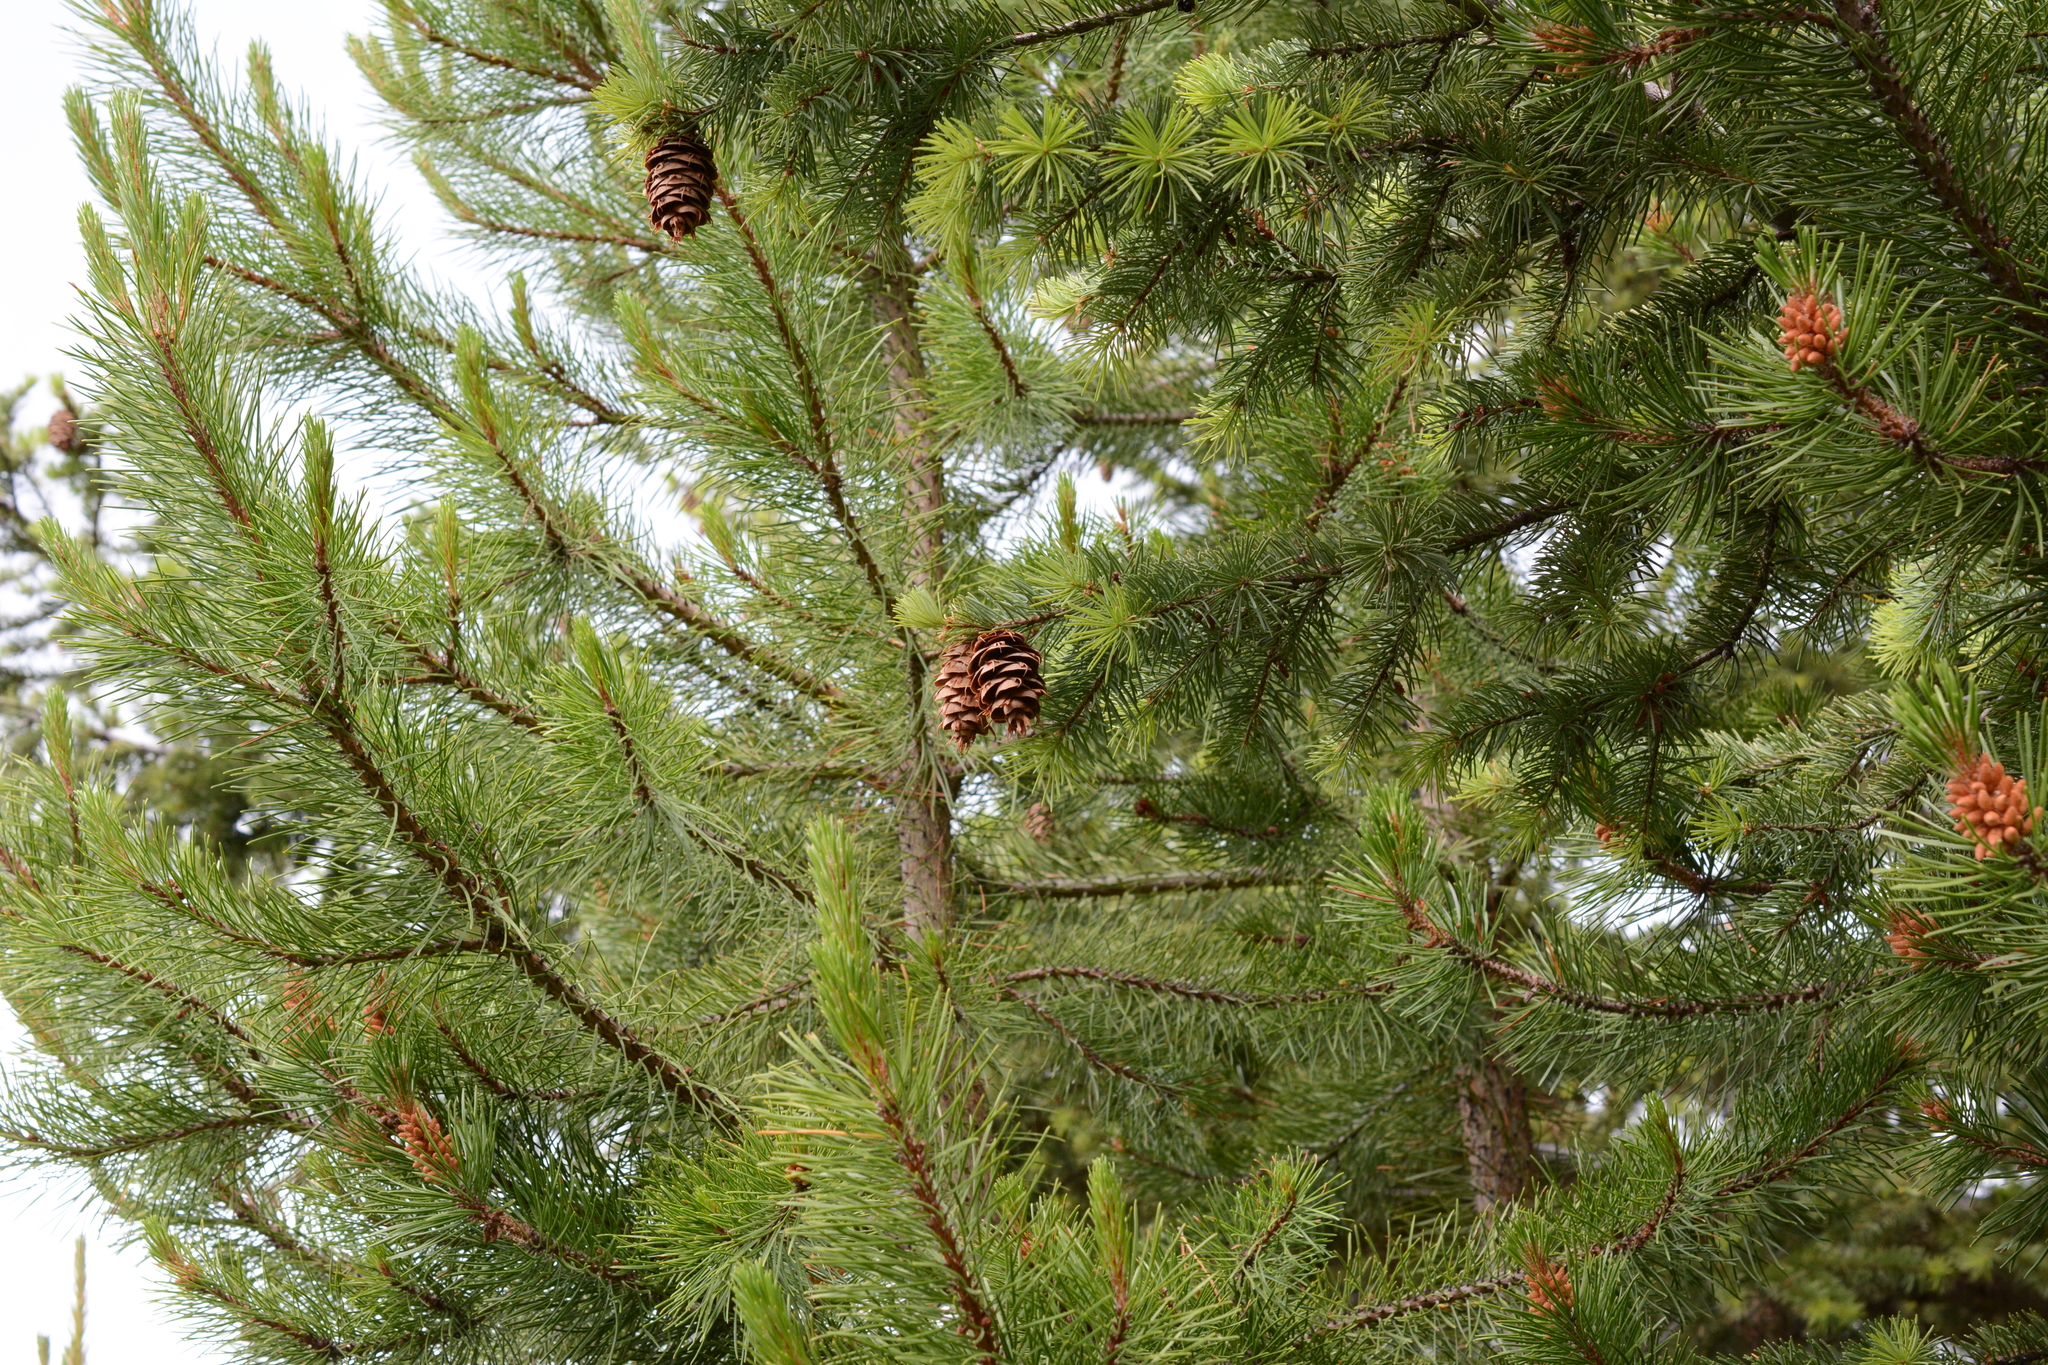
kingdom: Plantae
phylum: Tracheophyta
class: Pinopsida
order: Pinales
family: Pinaceae
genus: Pseudotsuga
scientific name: Pseudotsuga menziesii
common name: Douglas fir
